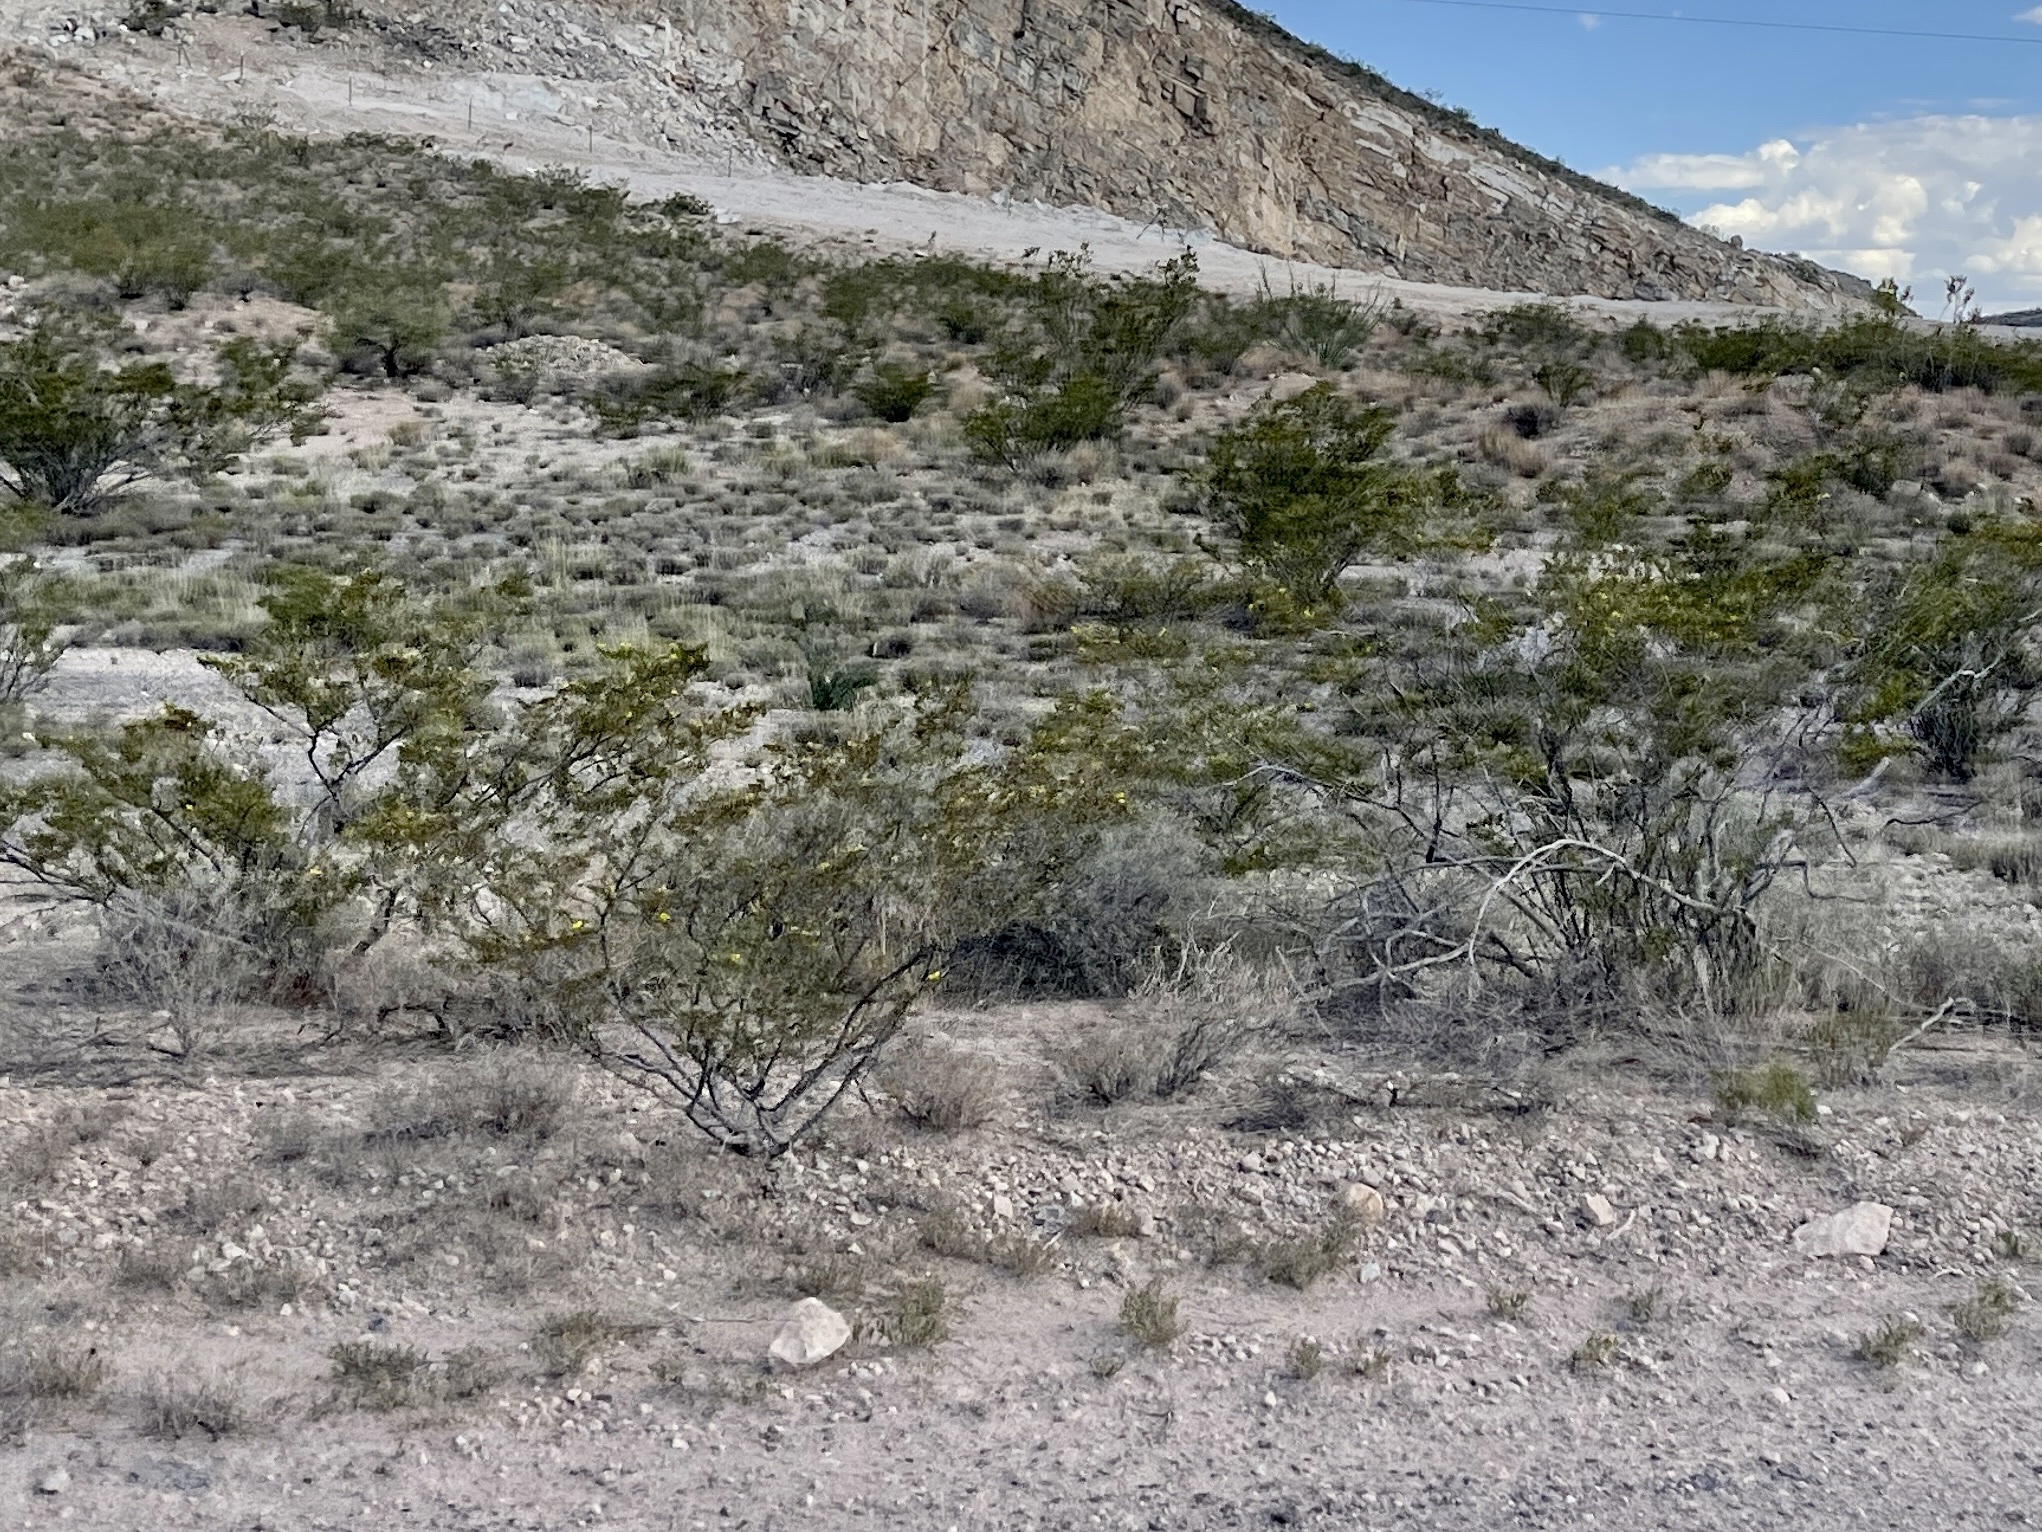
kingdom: Plantae
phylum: Tracheophyta
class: Magnoliopsida
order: Zygophyllales
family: Zygophyllaceae
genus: Larrea
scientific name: Larrea tridentata
